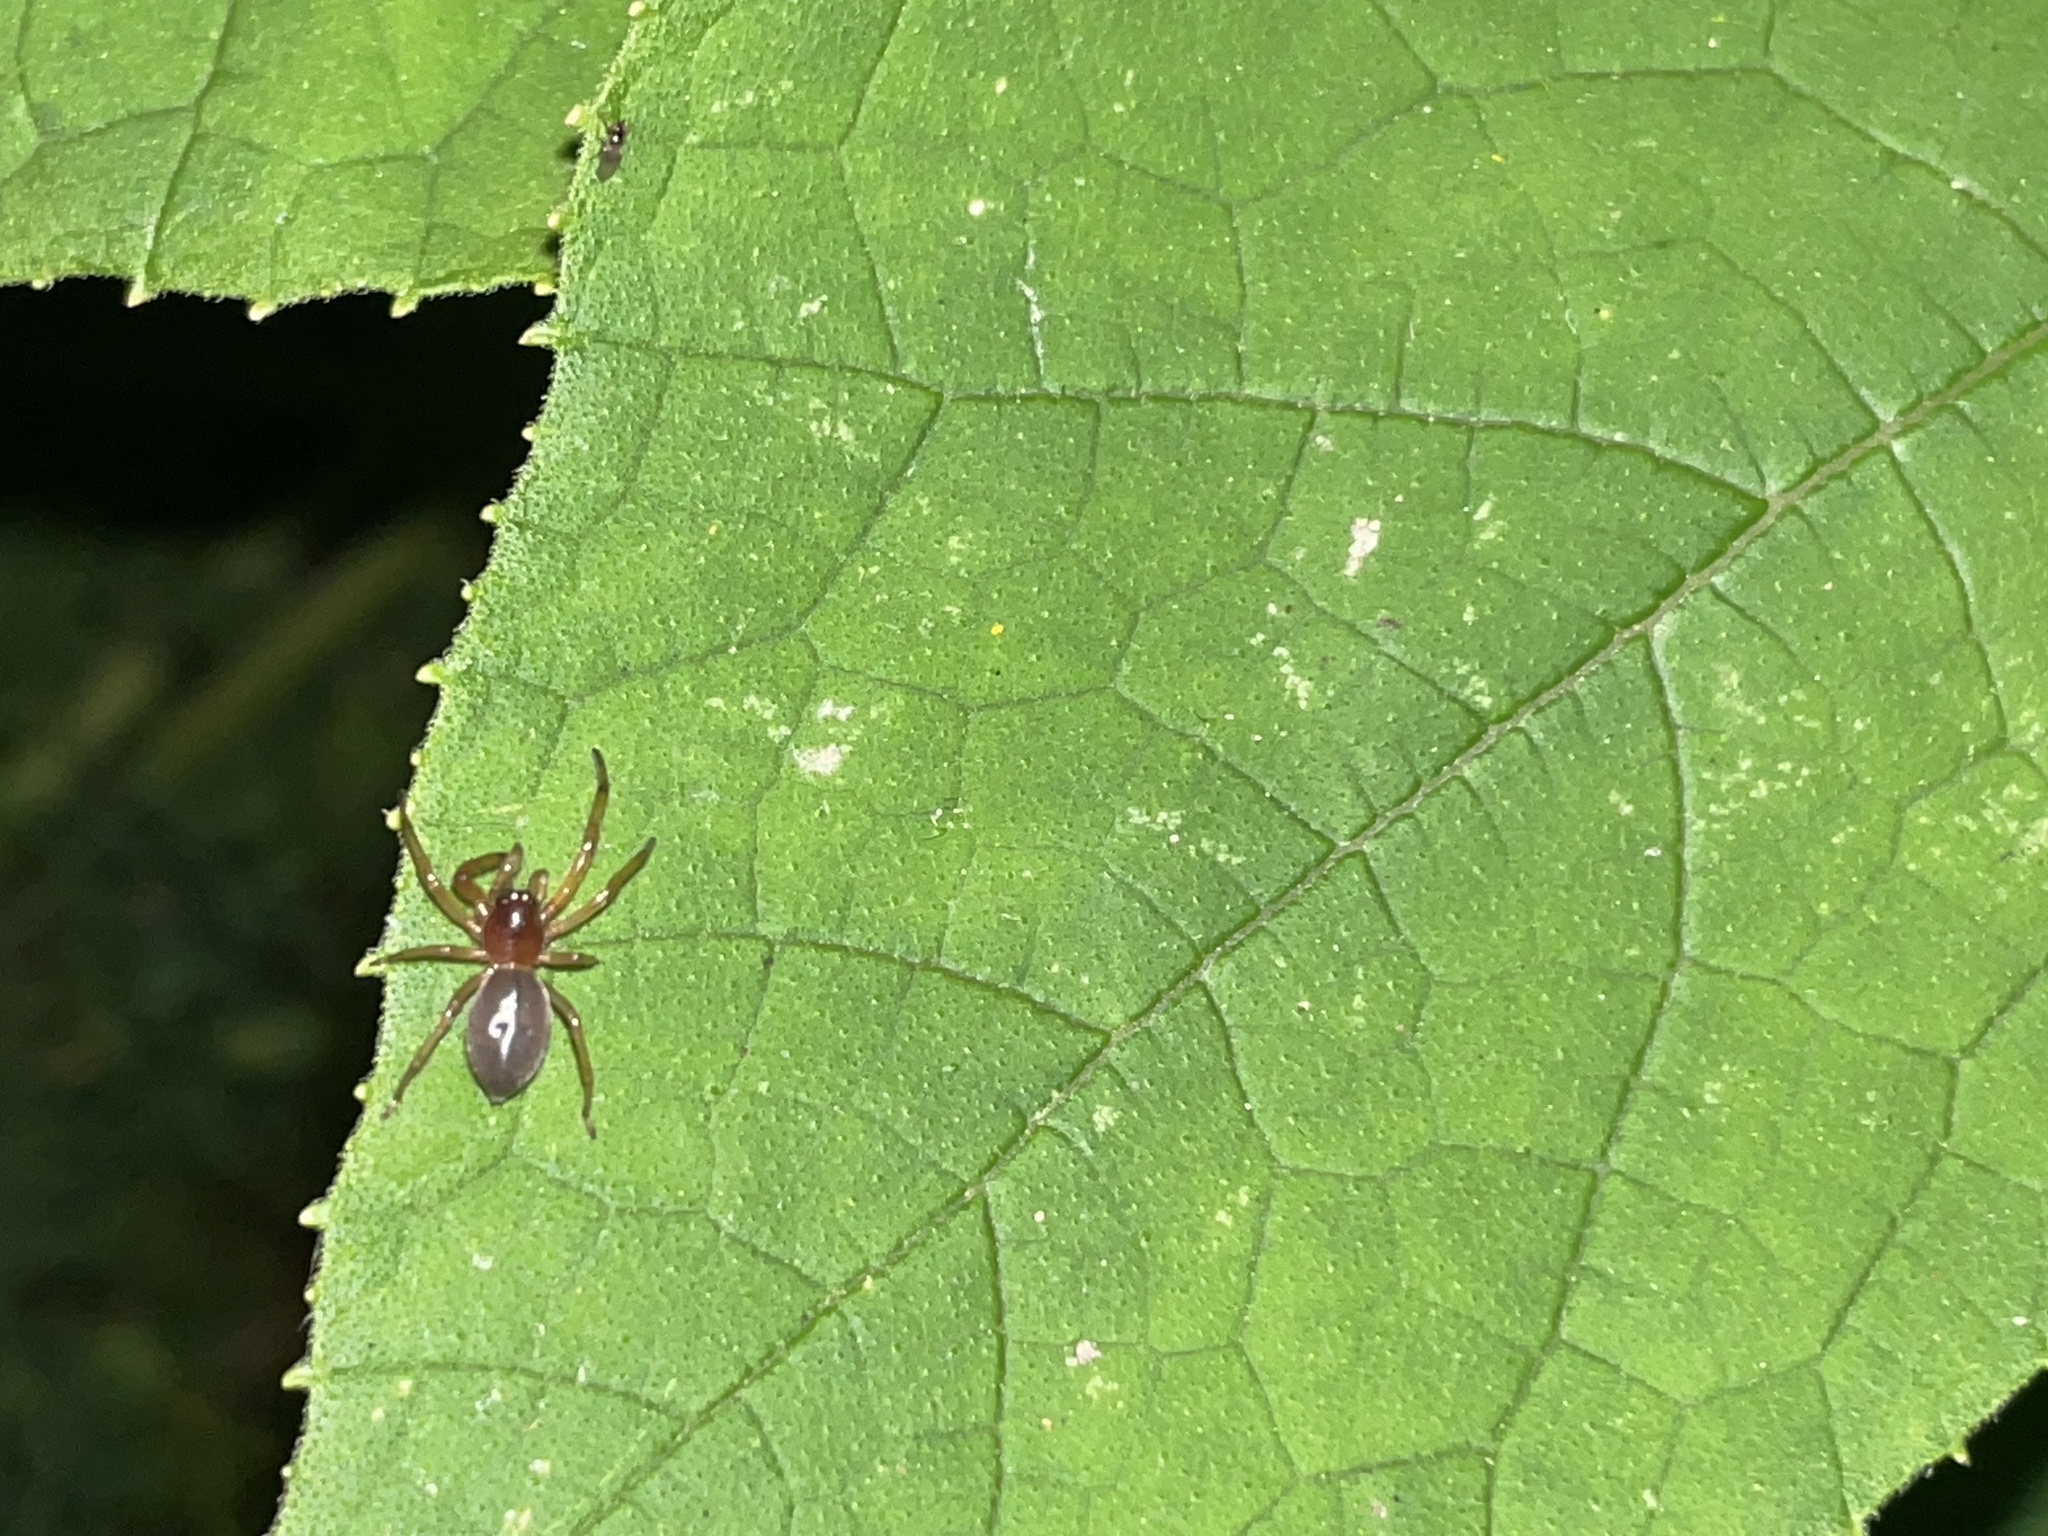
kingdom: Animalia
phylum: Arthropoda
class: Arachnida
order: Araneae
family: Trachelidae
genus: Trachelas
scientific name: Trachelas tranquillus
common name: Broad-faced sac spider
